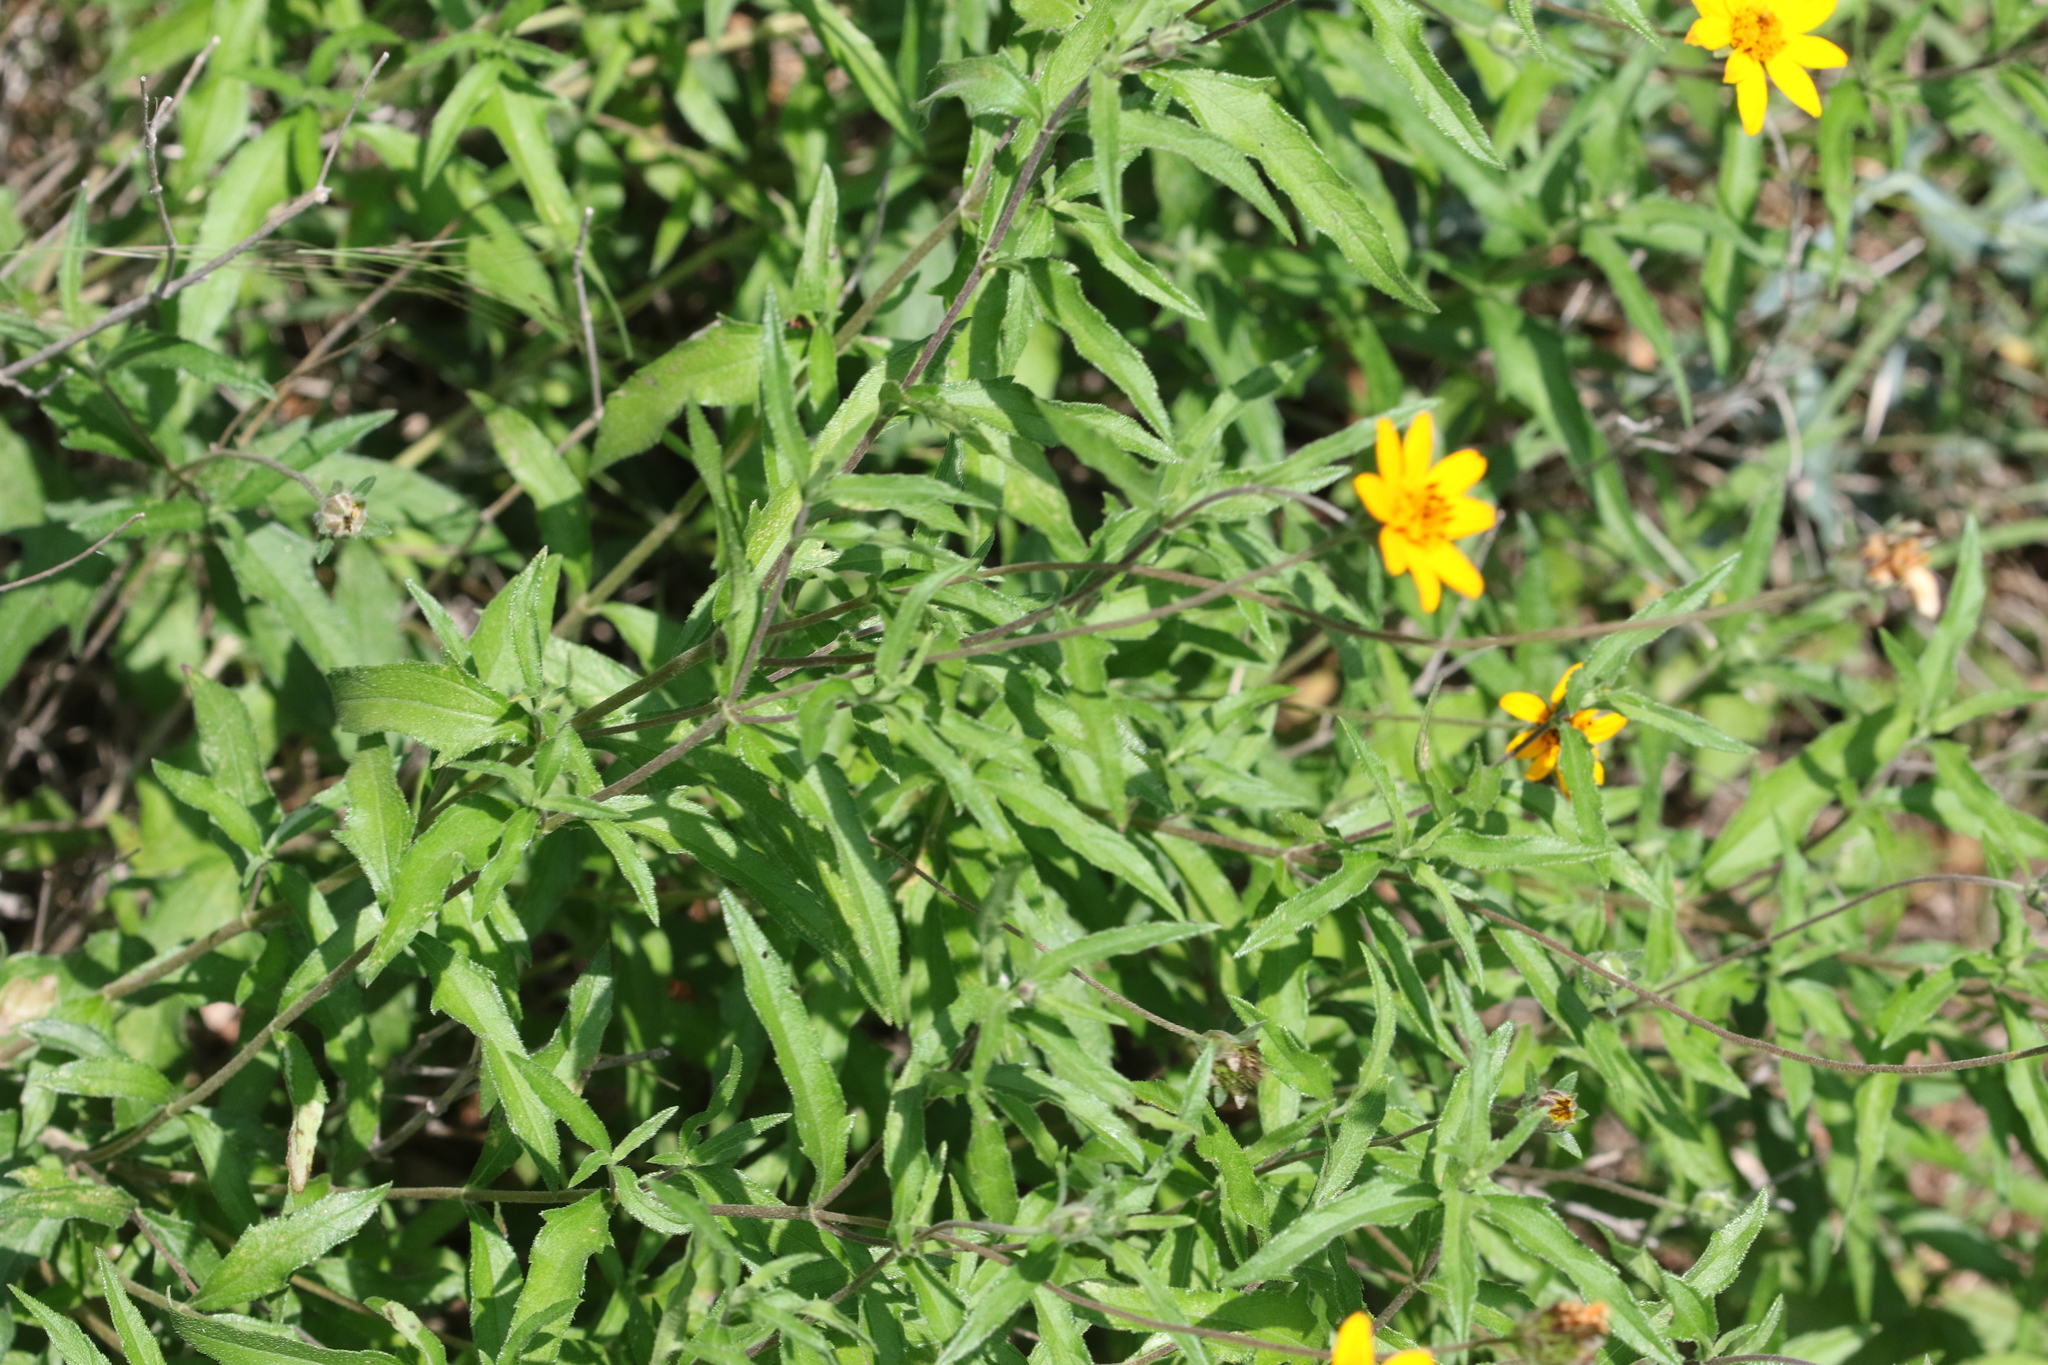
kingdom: Plantae
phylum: Tracheophyta
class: Magnoliopsida
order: Asterales
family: Asteraceae
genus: Wedelia
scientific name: Wedelia acapulcensis
